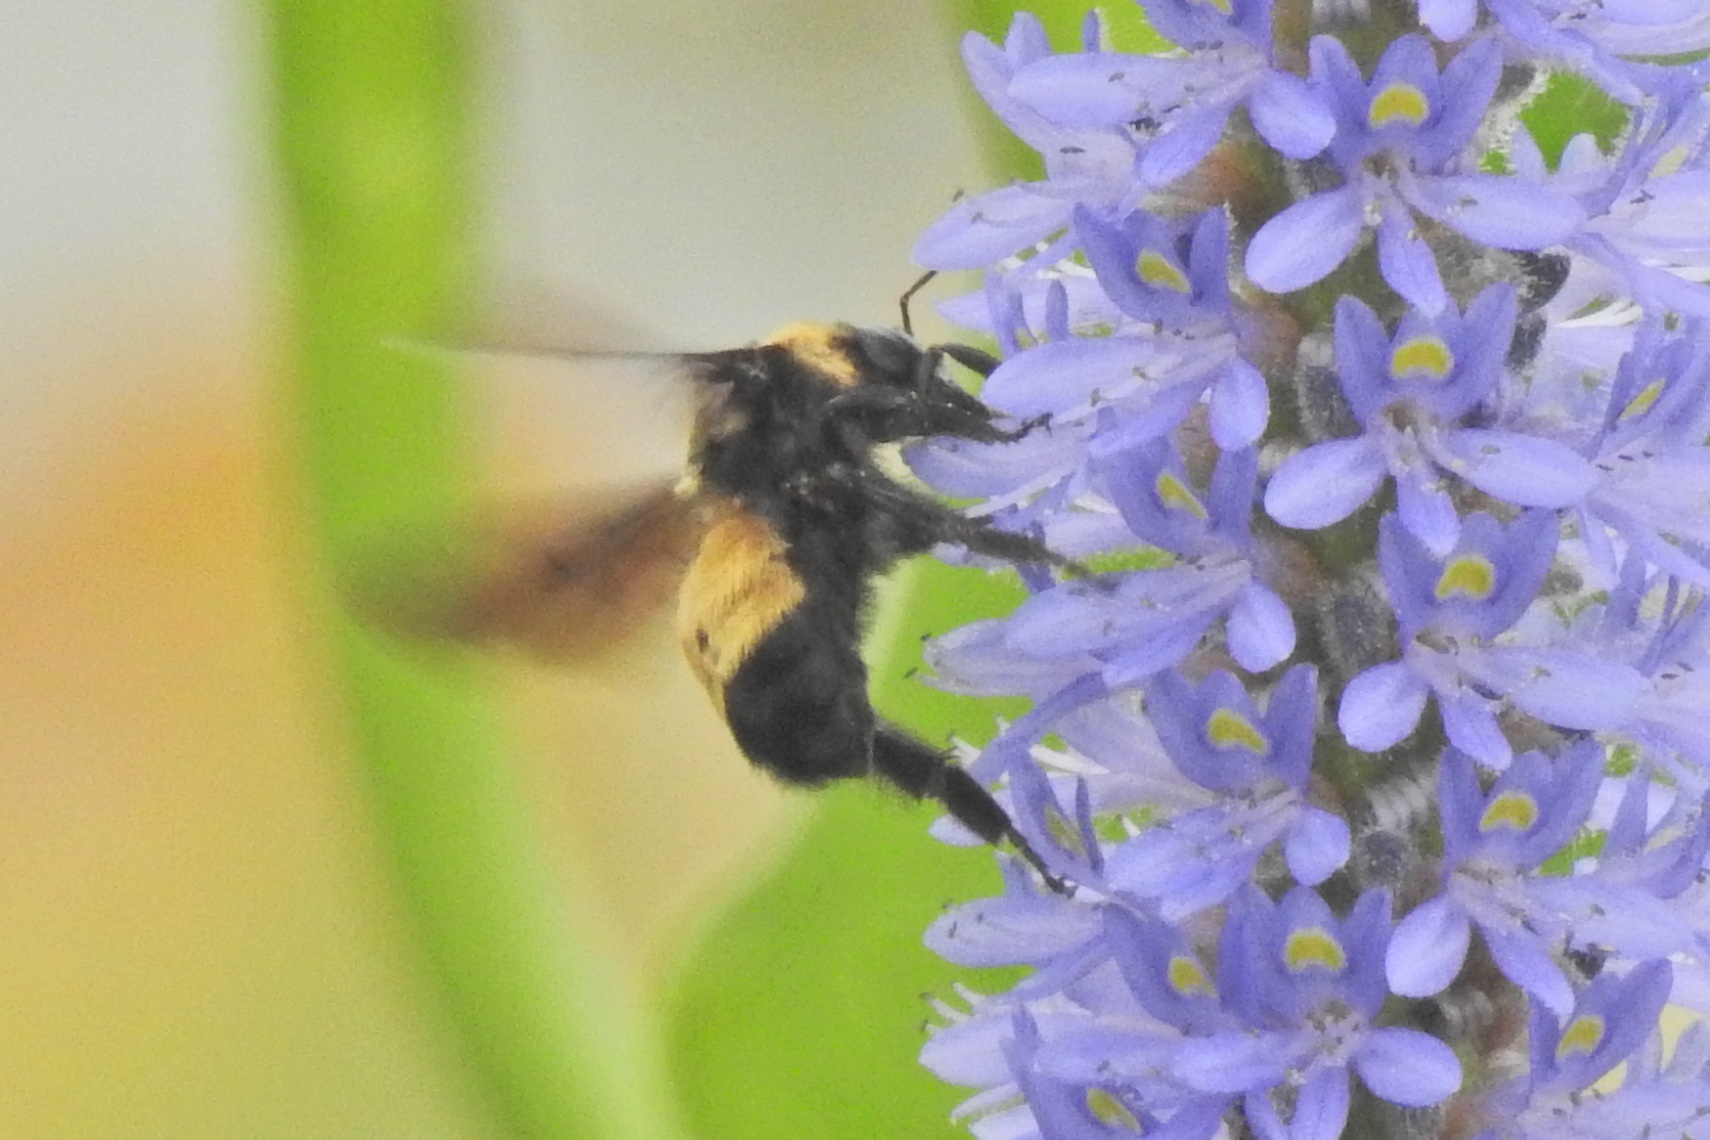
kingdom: Animalia
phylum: Arthropoda
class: Insecta
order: Hymenoptera
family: Apidae
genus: Bombus
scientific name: Bombus auricomus
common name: Black and gold bumble bee
